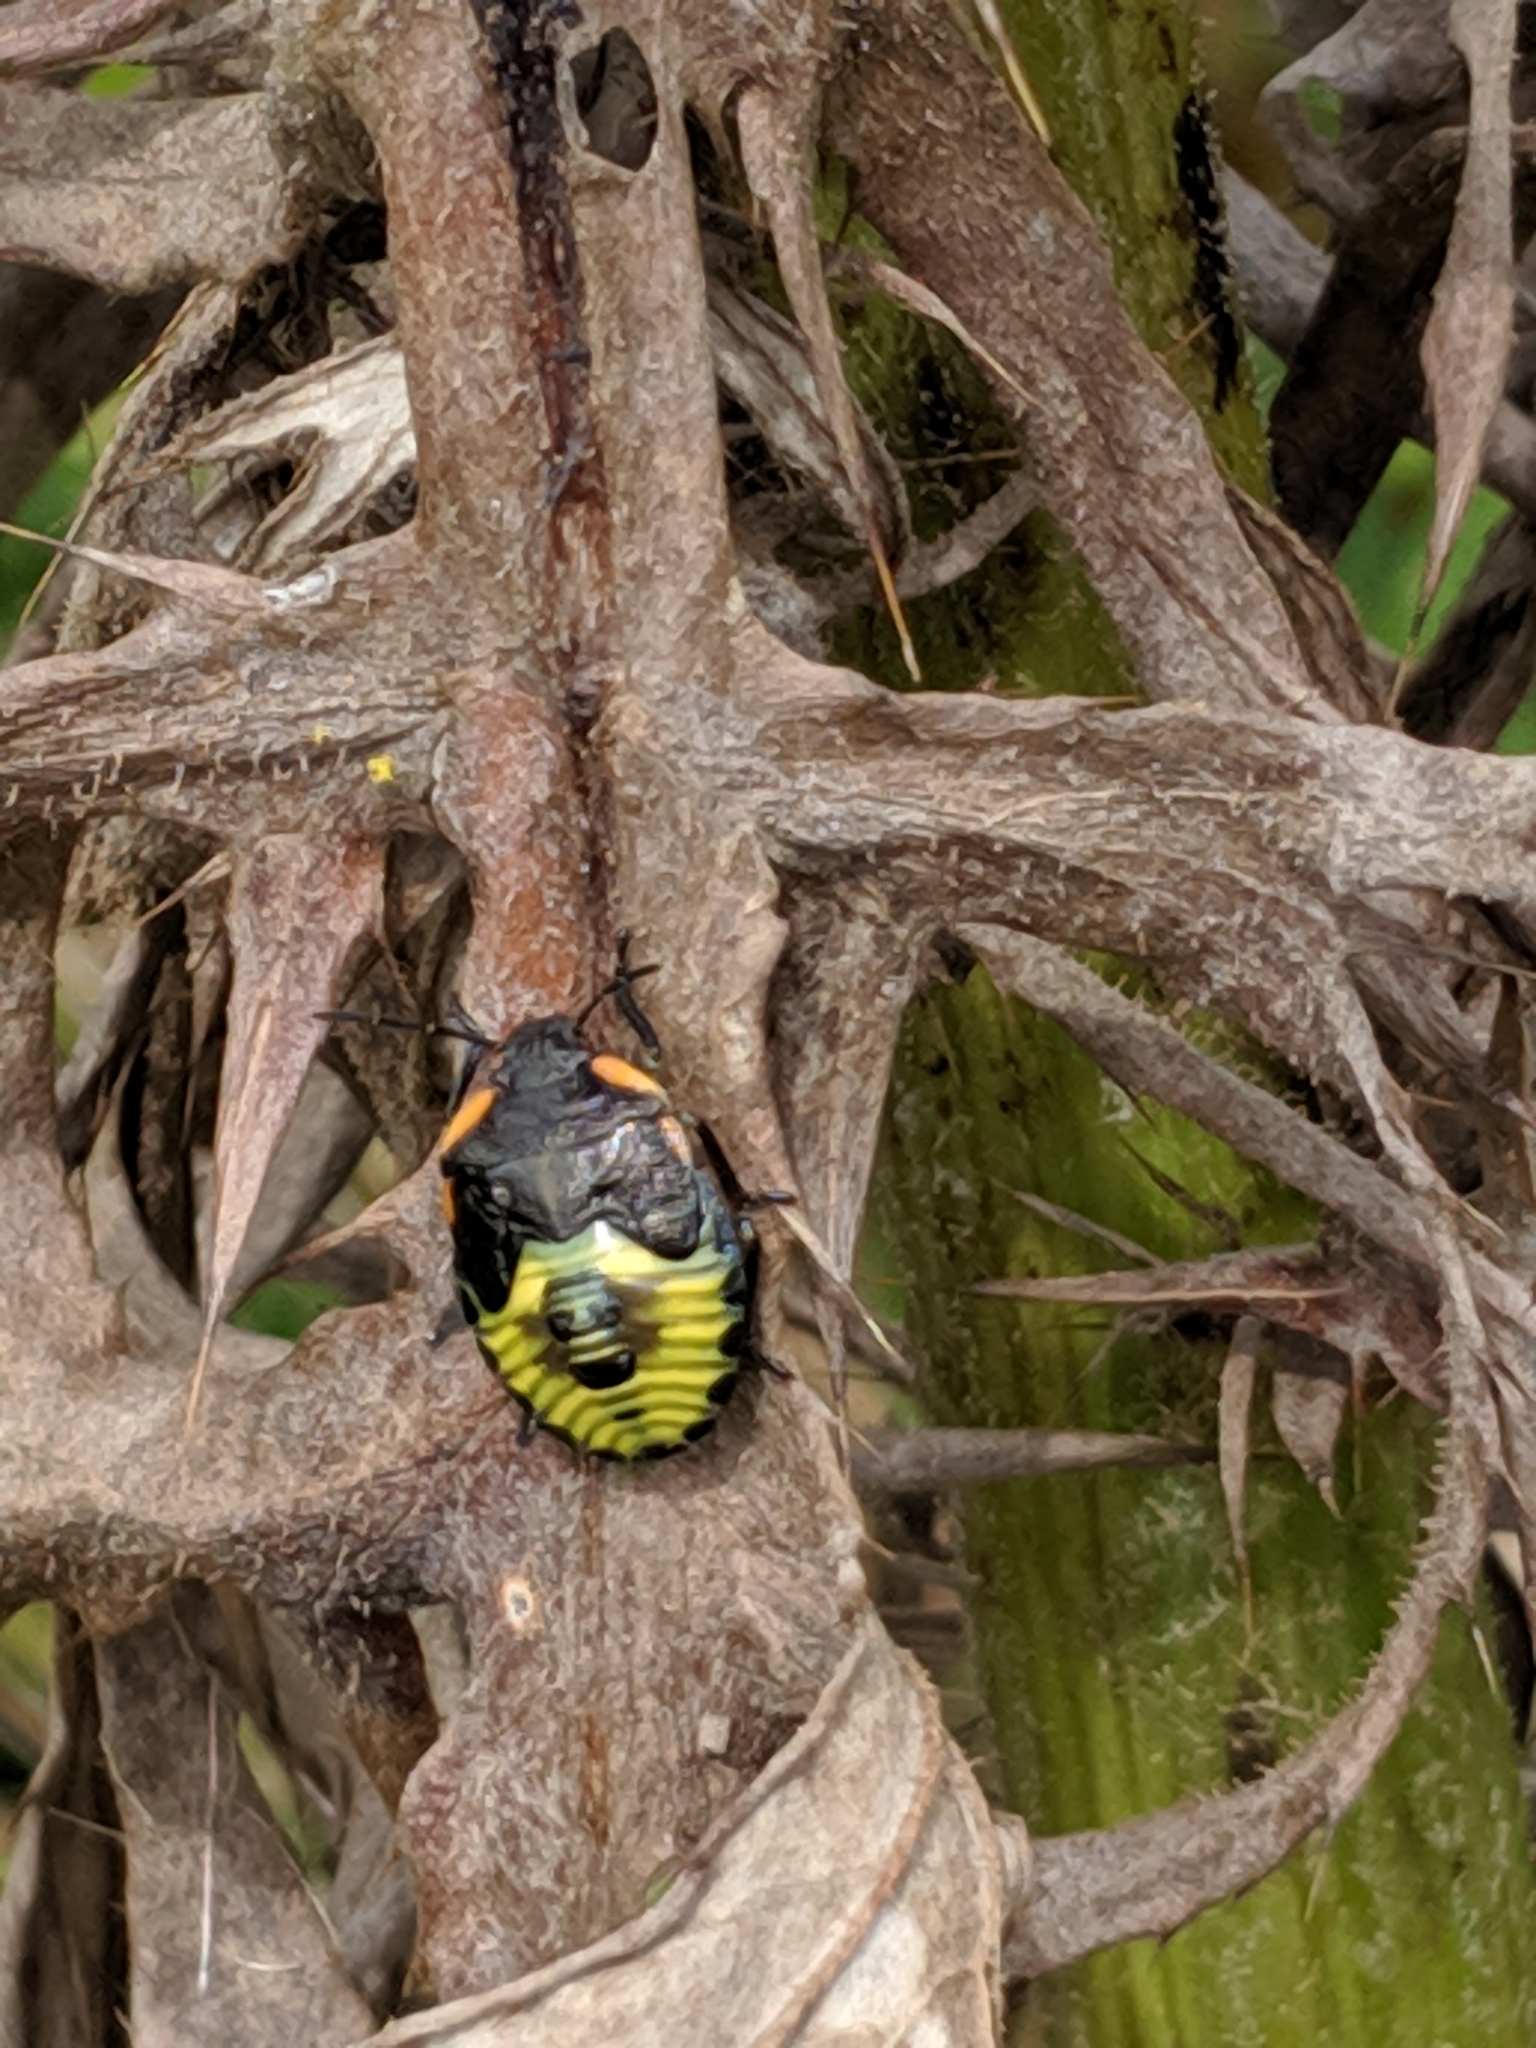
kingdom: Animalia
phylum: Arthropoda
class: Insecta
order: Hemiptera
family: Pentatomidae
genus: Chinavia
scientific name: Chinavia hilaris
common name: Green stink bug
